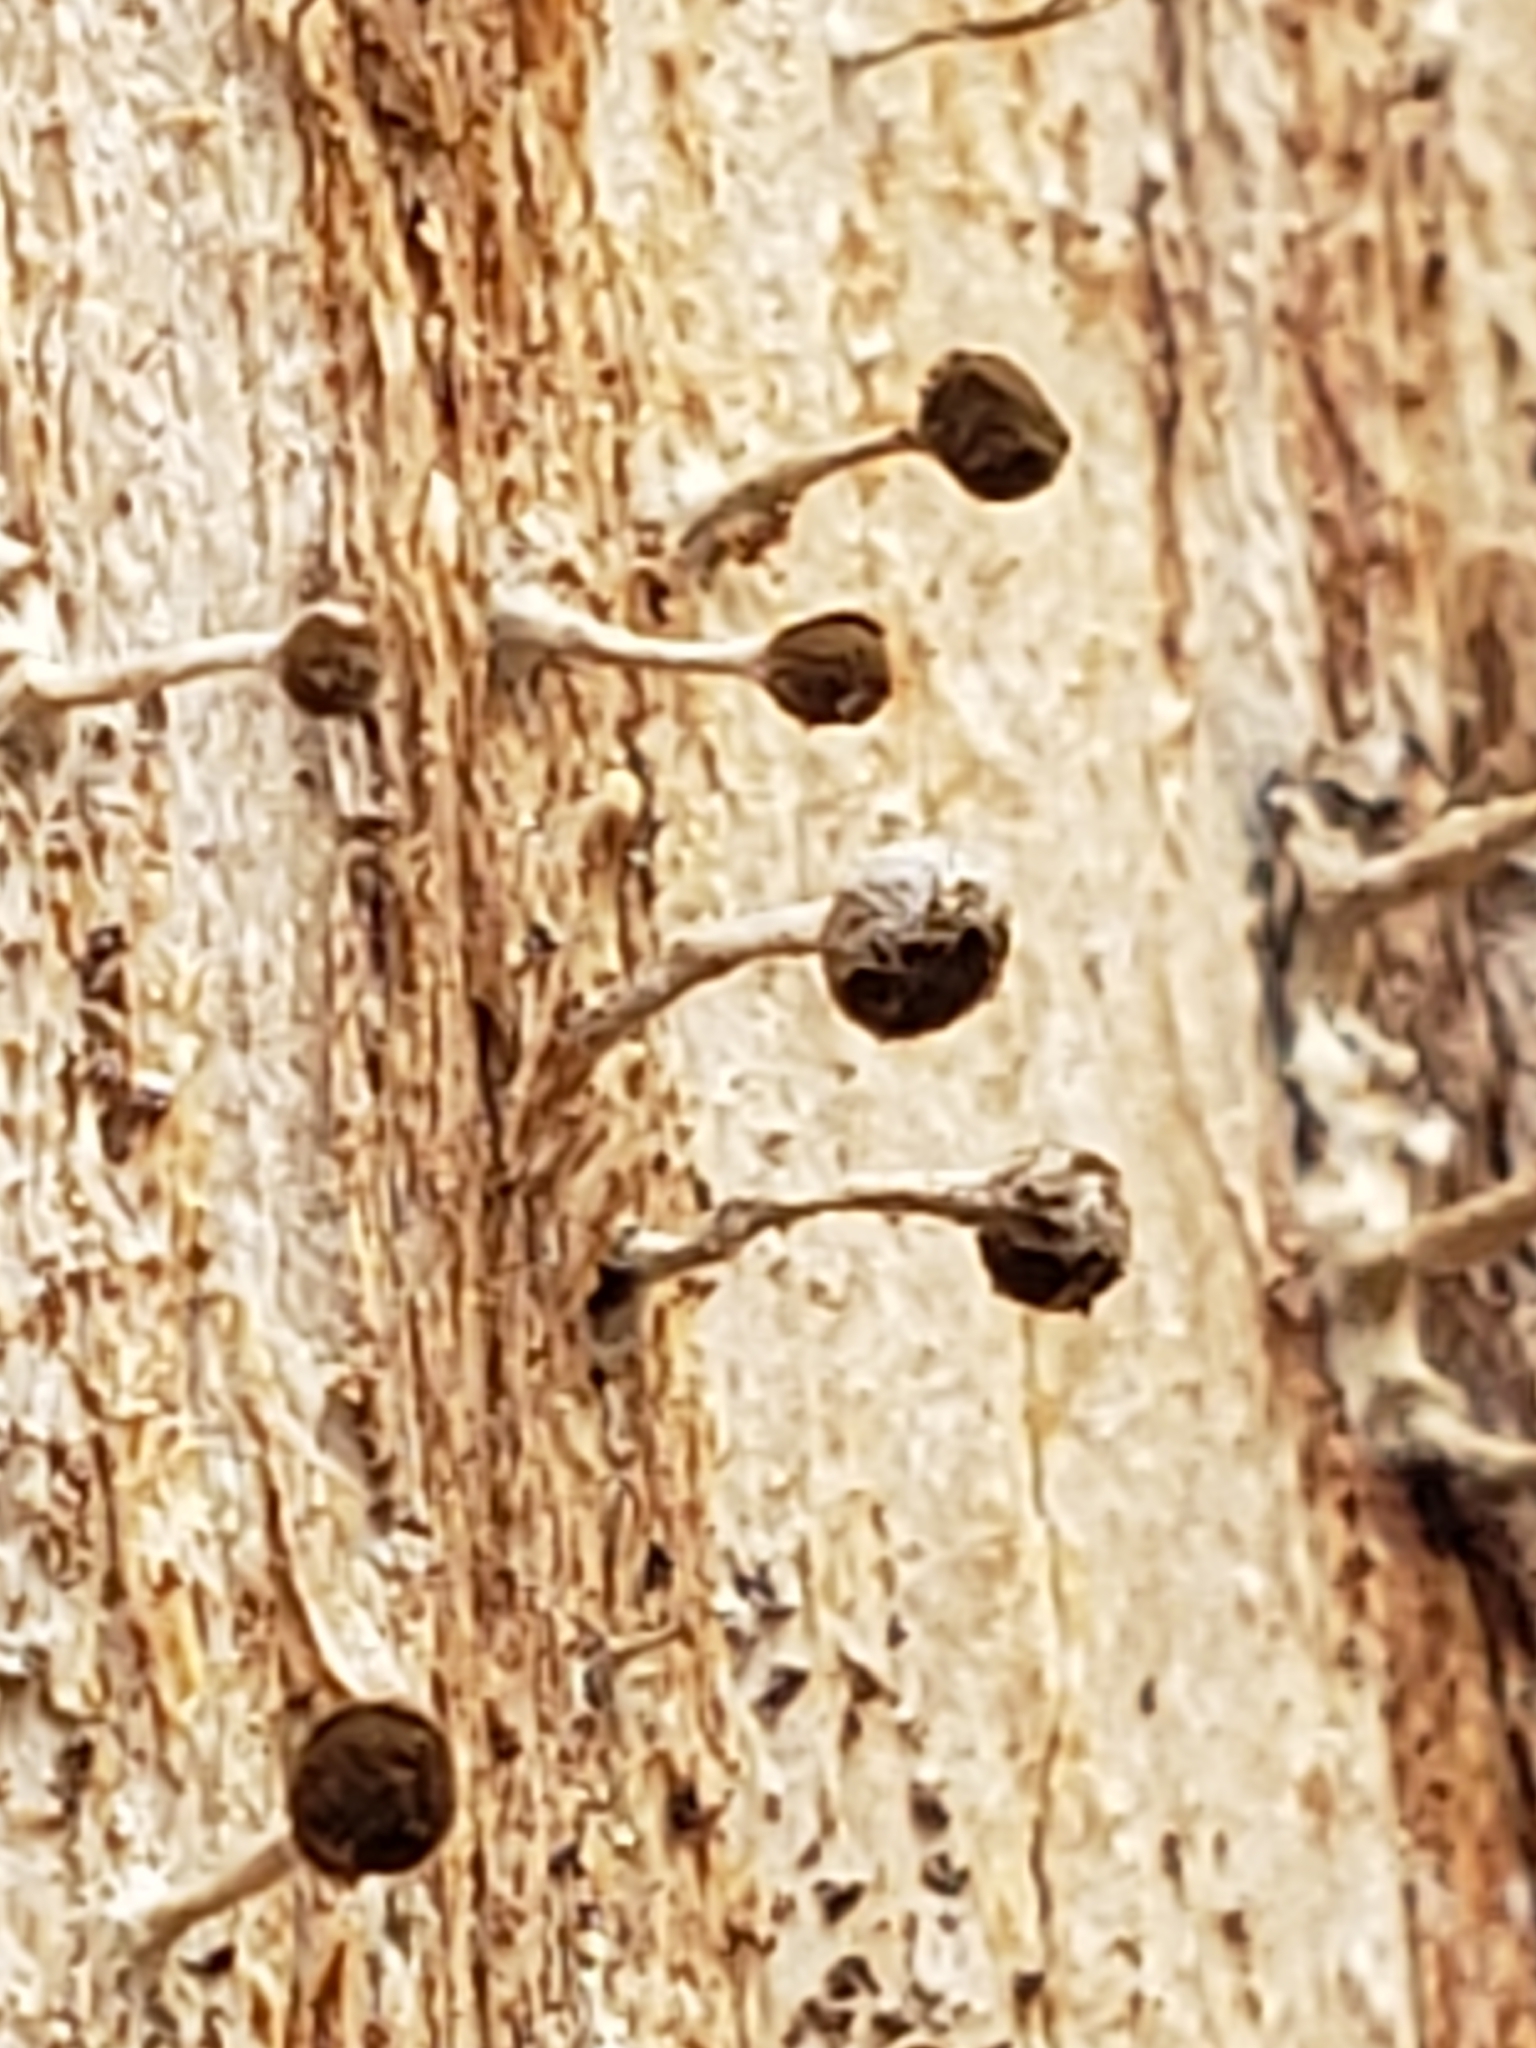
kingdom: Fungi
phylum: Basidiomycota
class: Atractiellomycetes
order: Atractiellales
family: Phleogenaceae
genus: Phleogena
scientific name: Phleogena faginea
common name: Fenugreek stalkball
